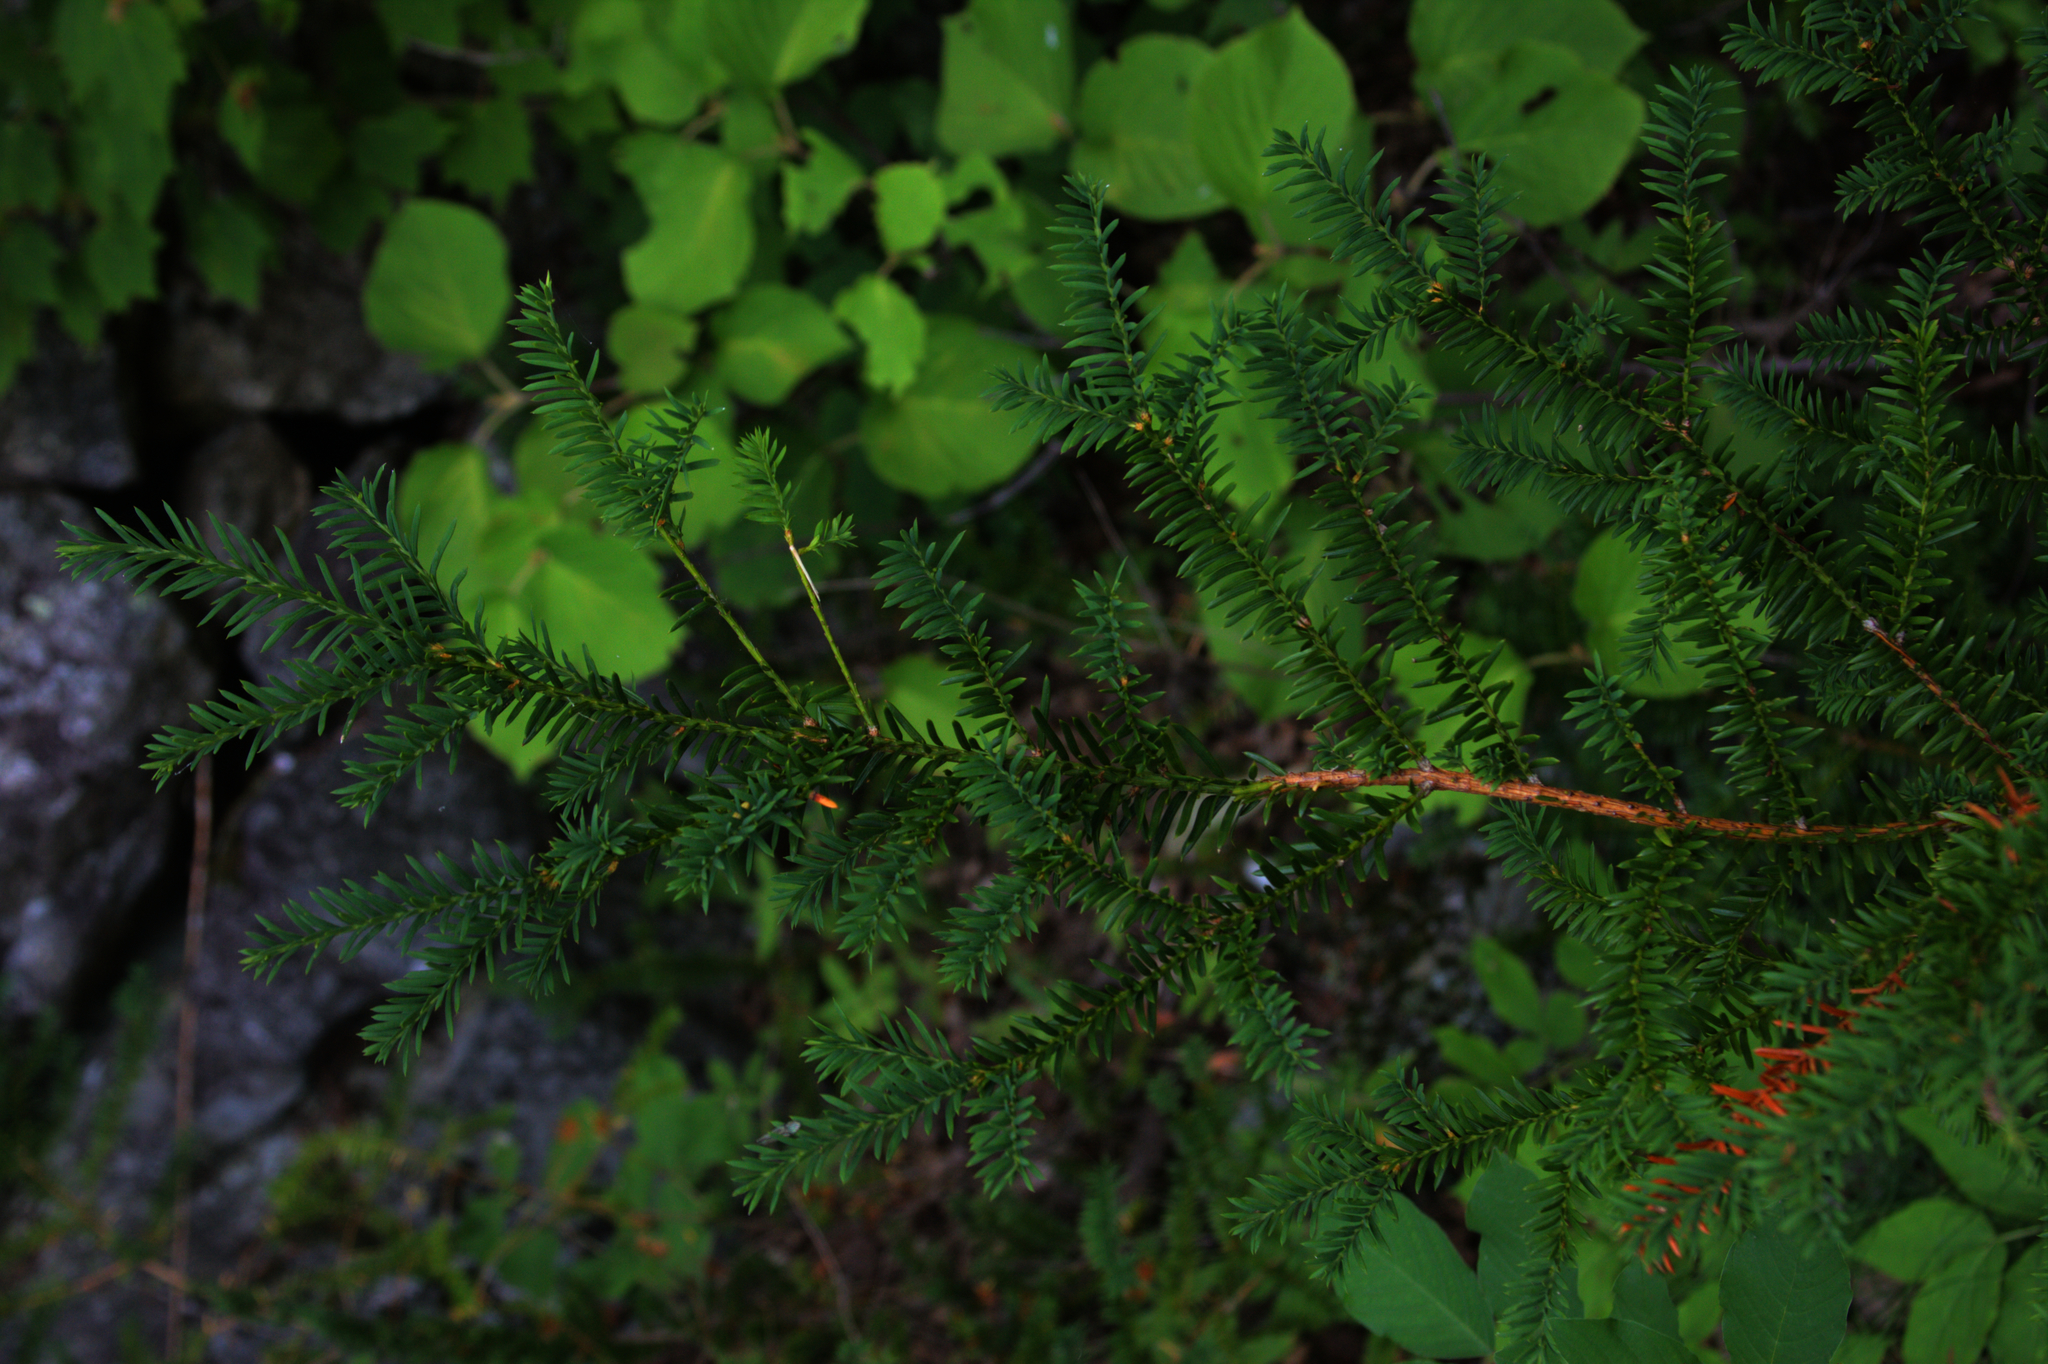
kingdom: Plantae
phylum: Tracheophyta
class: Pinopsida
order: Pinales
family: Taxaceae
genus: Taxus
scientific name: Taxus canadensis
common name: American yew
